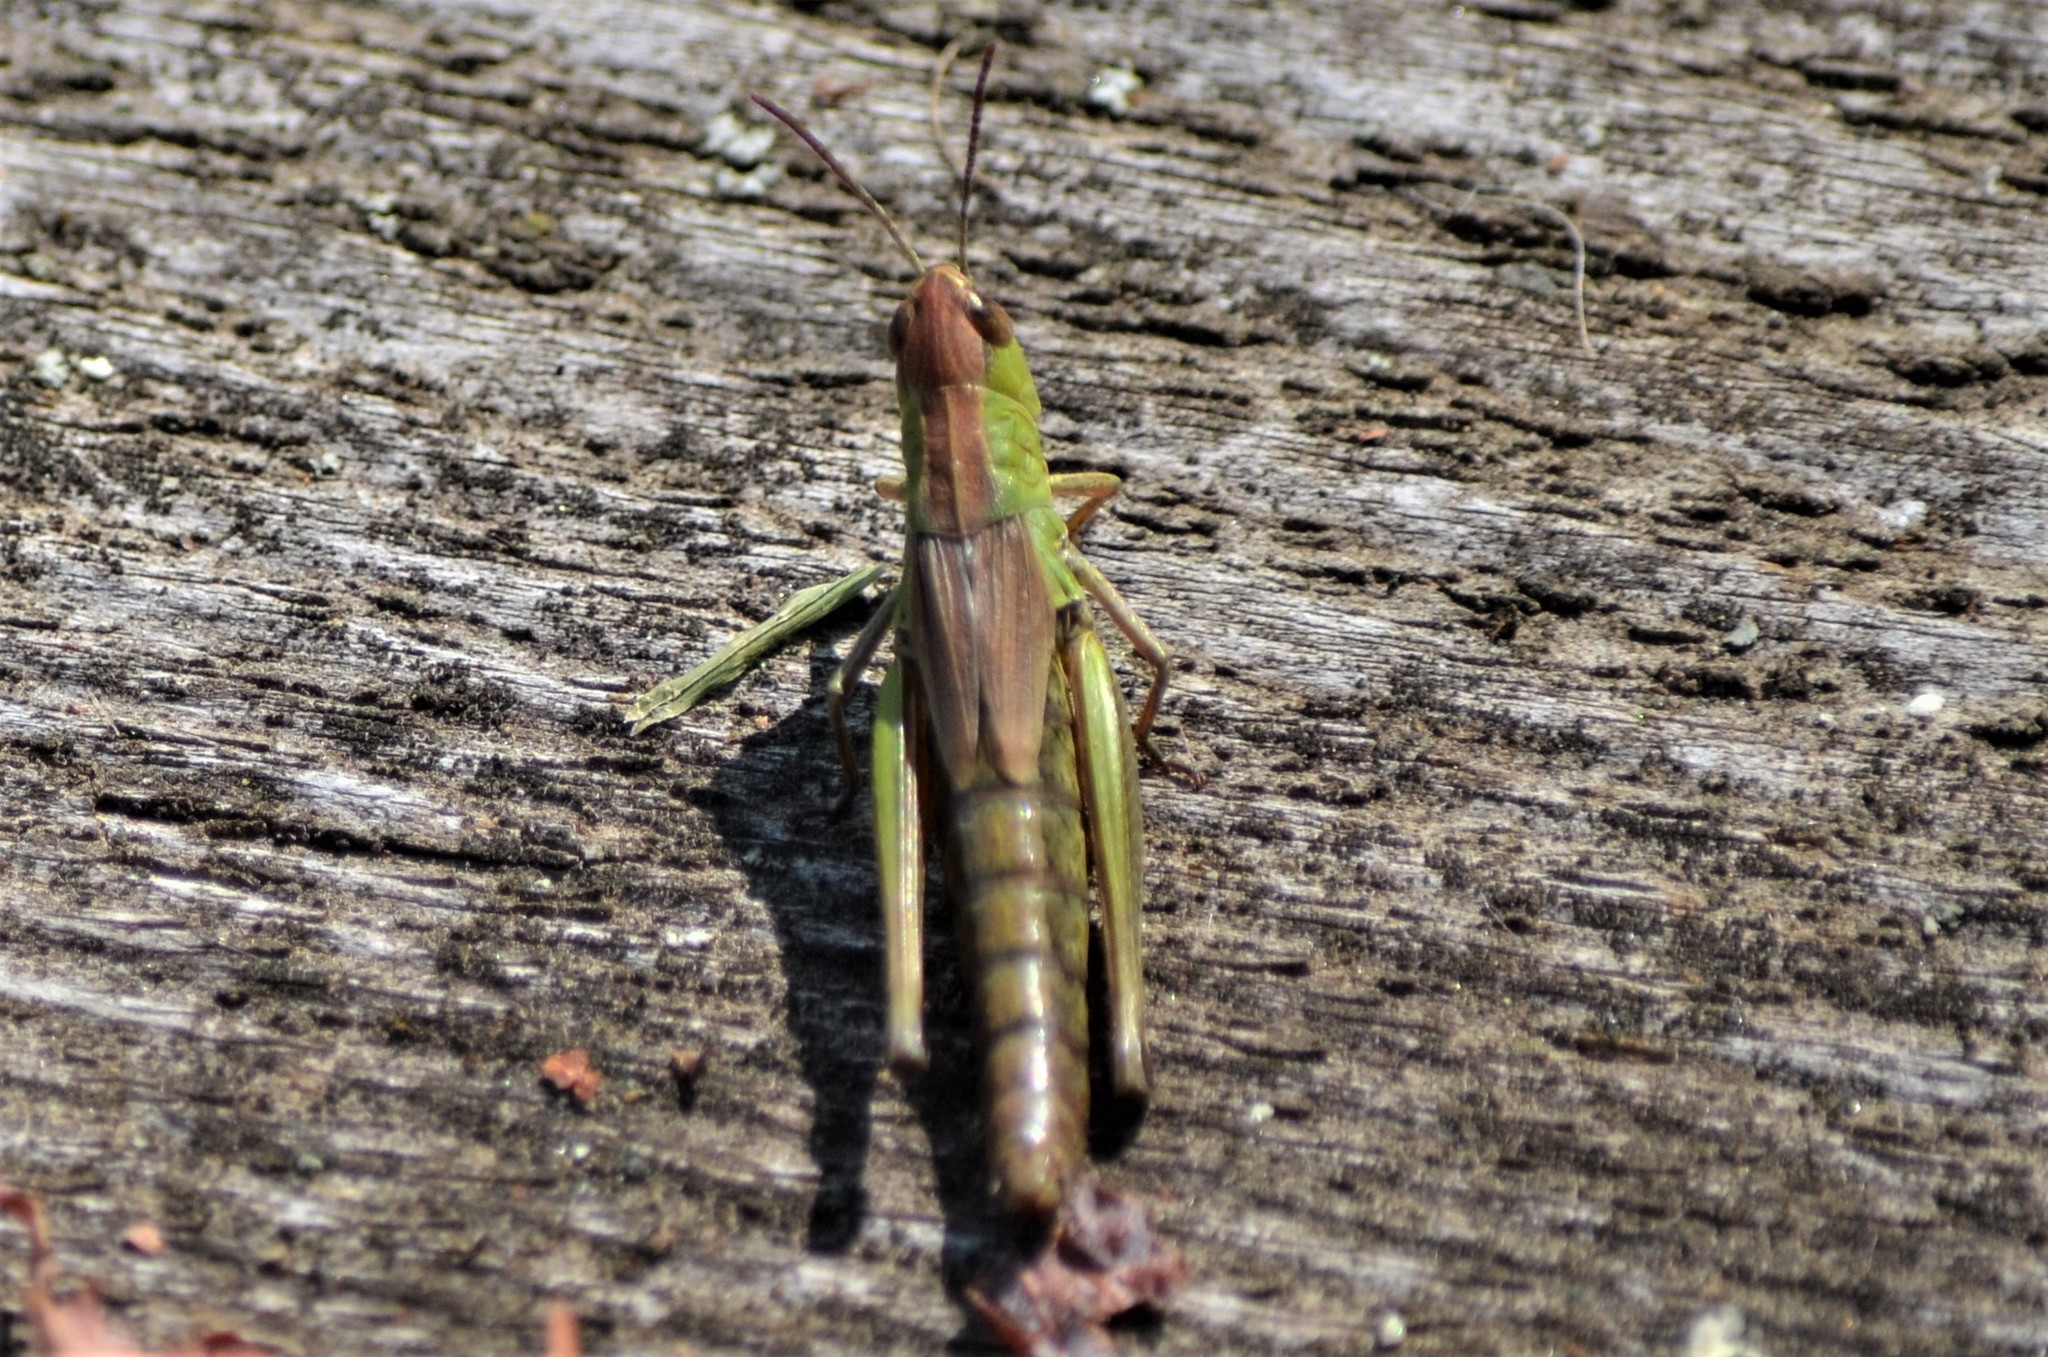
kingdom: Animalia
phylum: Arthropoda
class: Insecta
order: Orthoptera
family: Acrididae
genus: Pseudochorthippus
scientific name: Pseudochorthippus parallelus
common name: Meadow grasshopper
